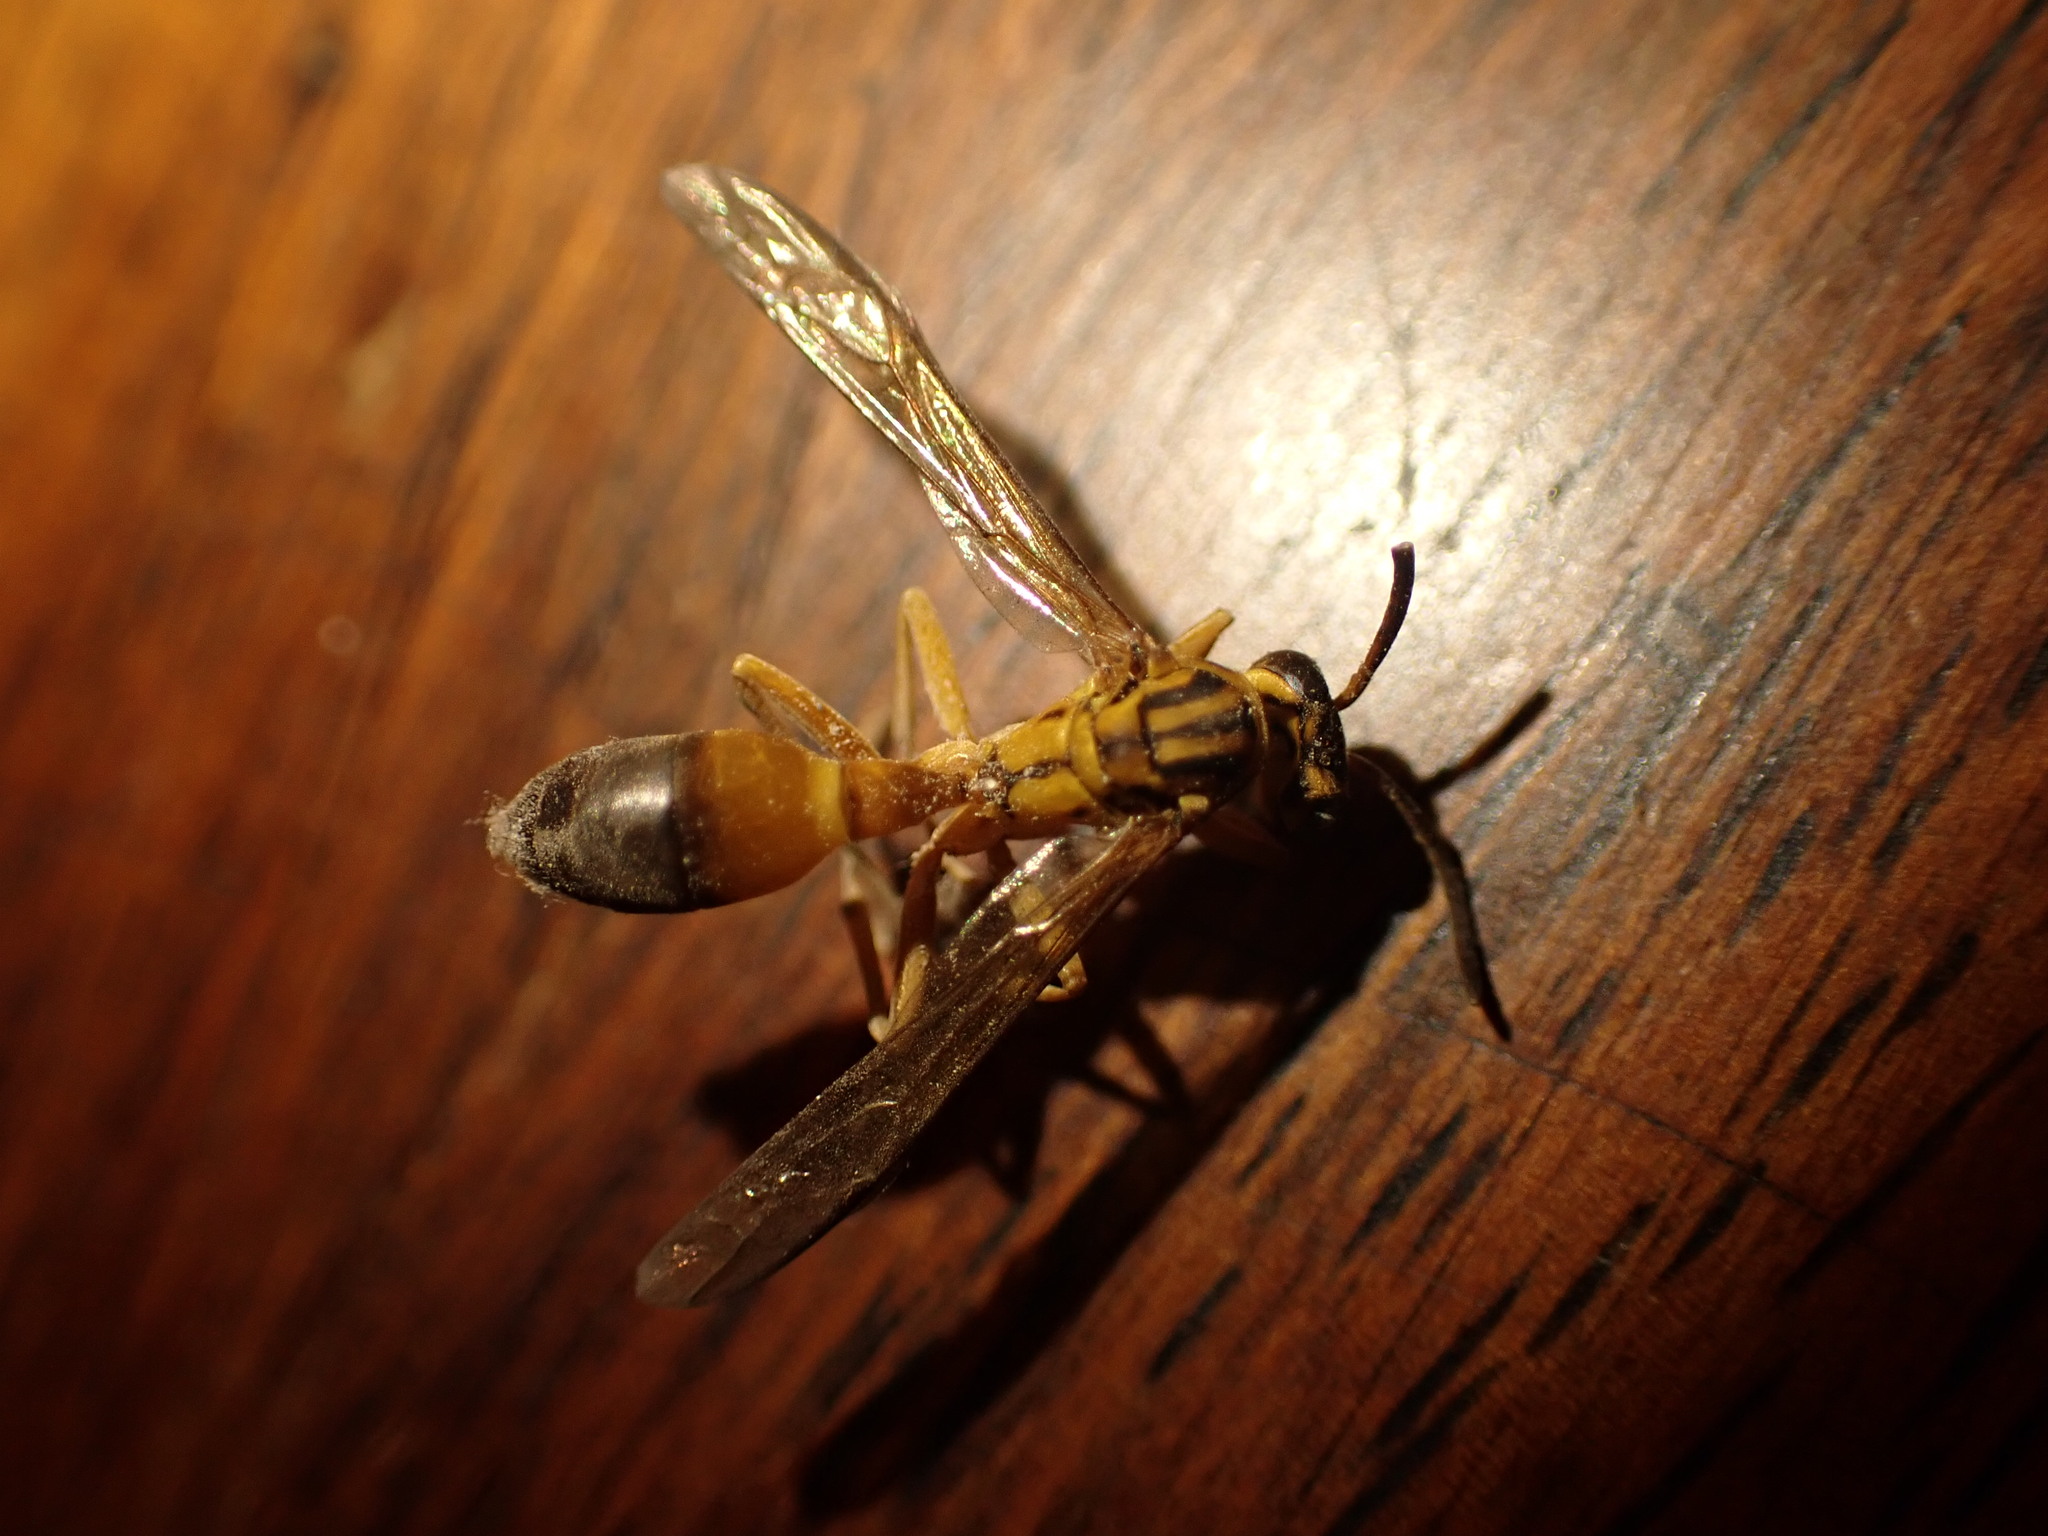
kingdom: Animalia
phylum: Arthropoda
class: Insecta
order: Hymenoptera
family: Vespidae
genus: Agelaia
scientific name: Agelaia pallipes
